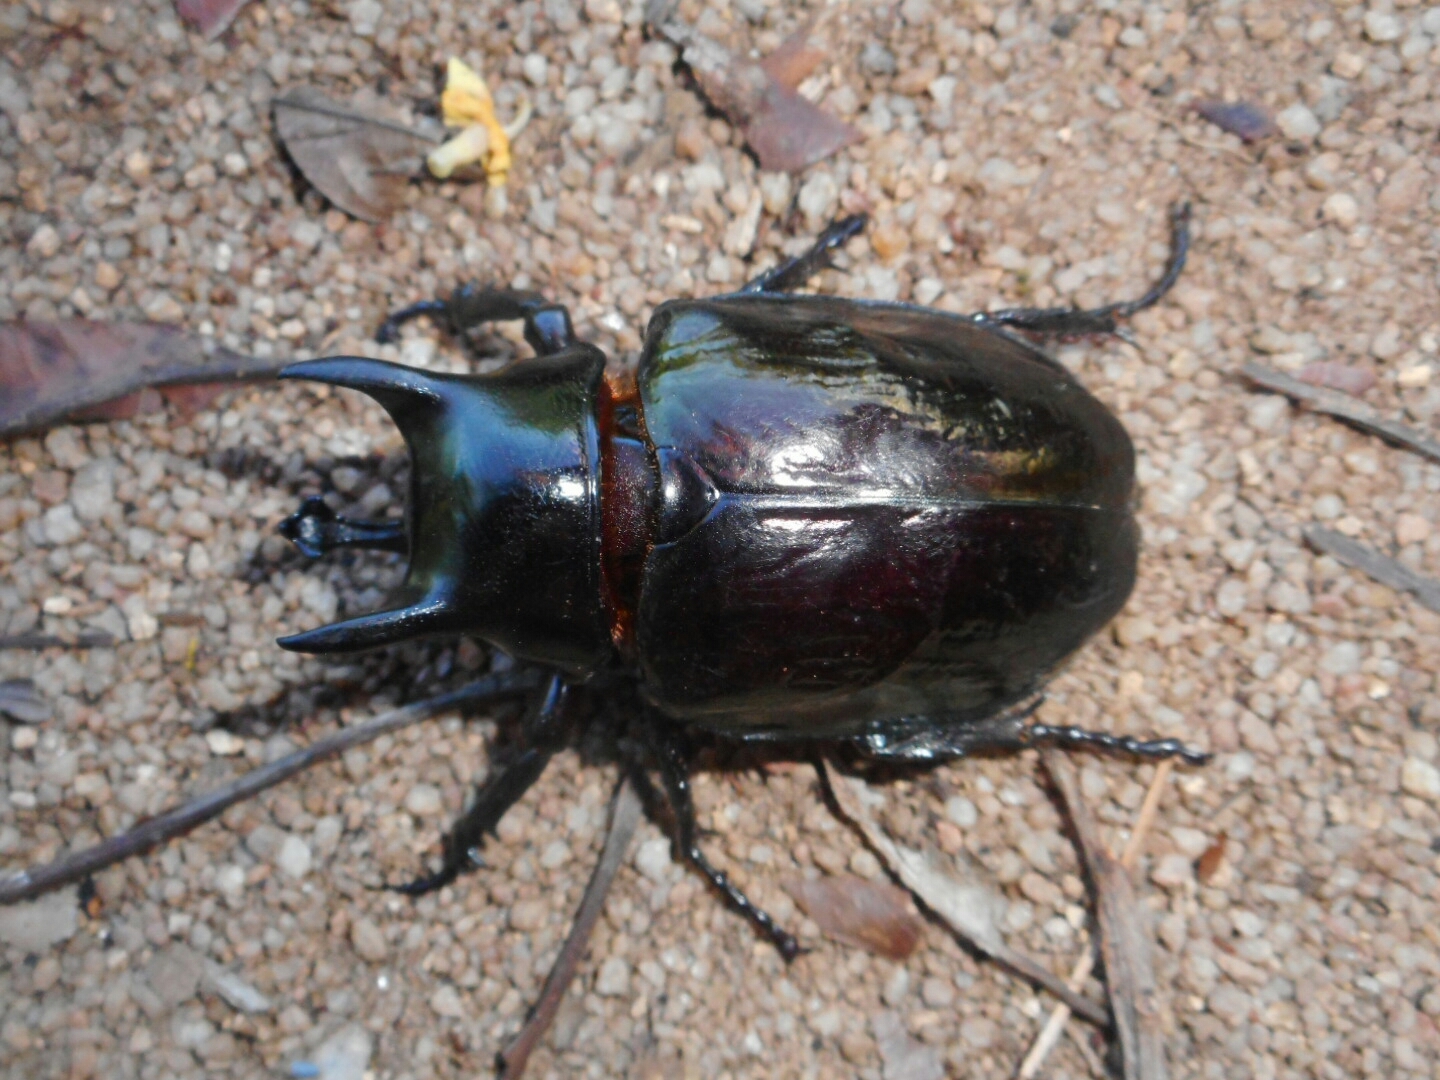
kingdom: Animalia
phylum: Arthropoda
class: Insecta
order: Coleoptera
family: Scarabaeidae
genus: Chalcosoma
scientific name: Chalcosoma atlas
